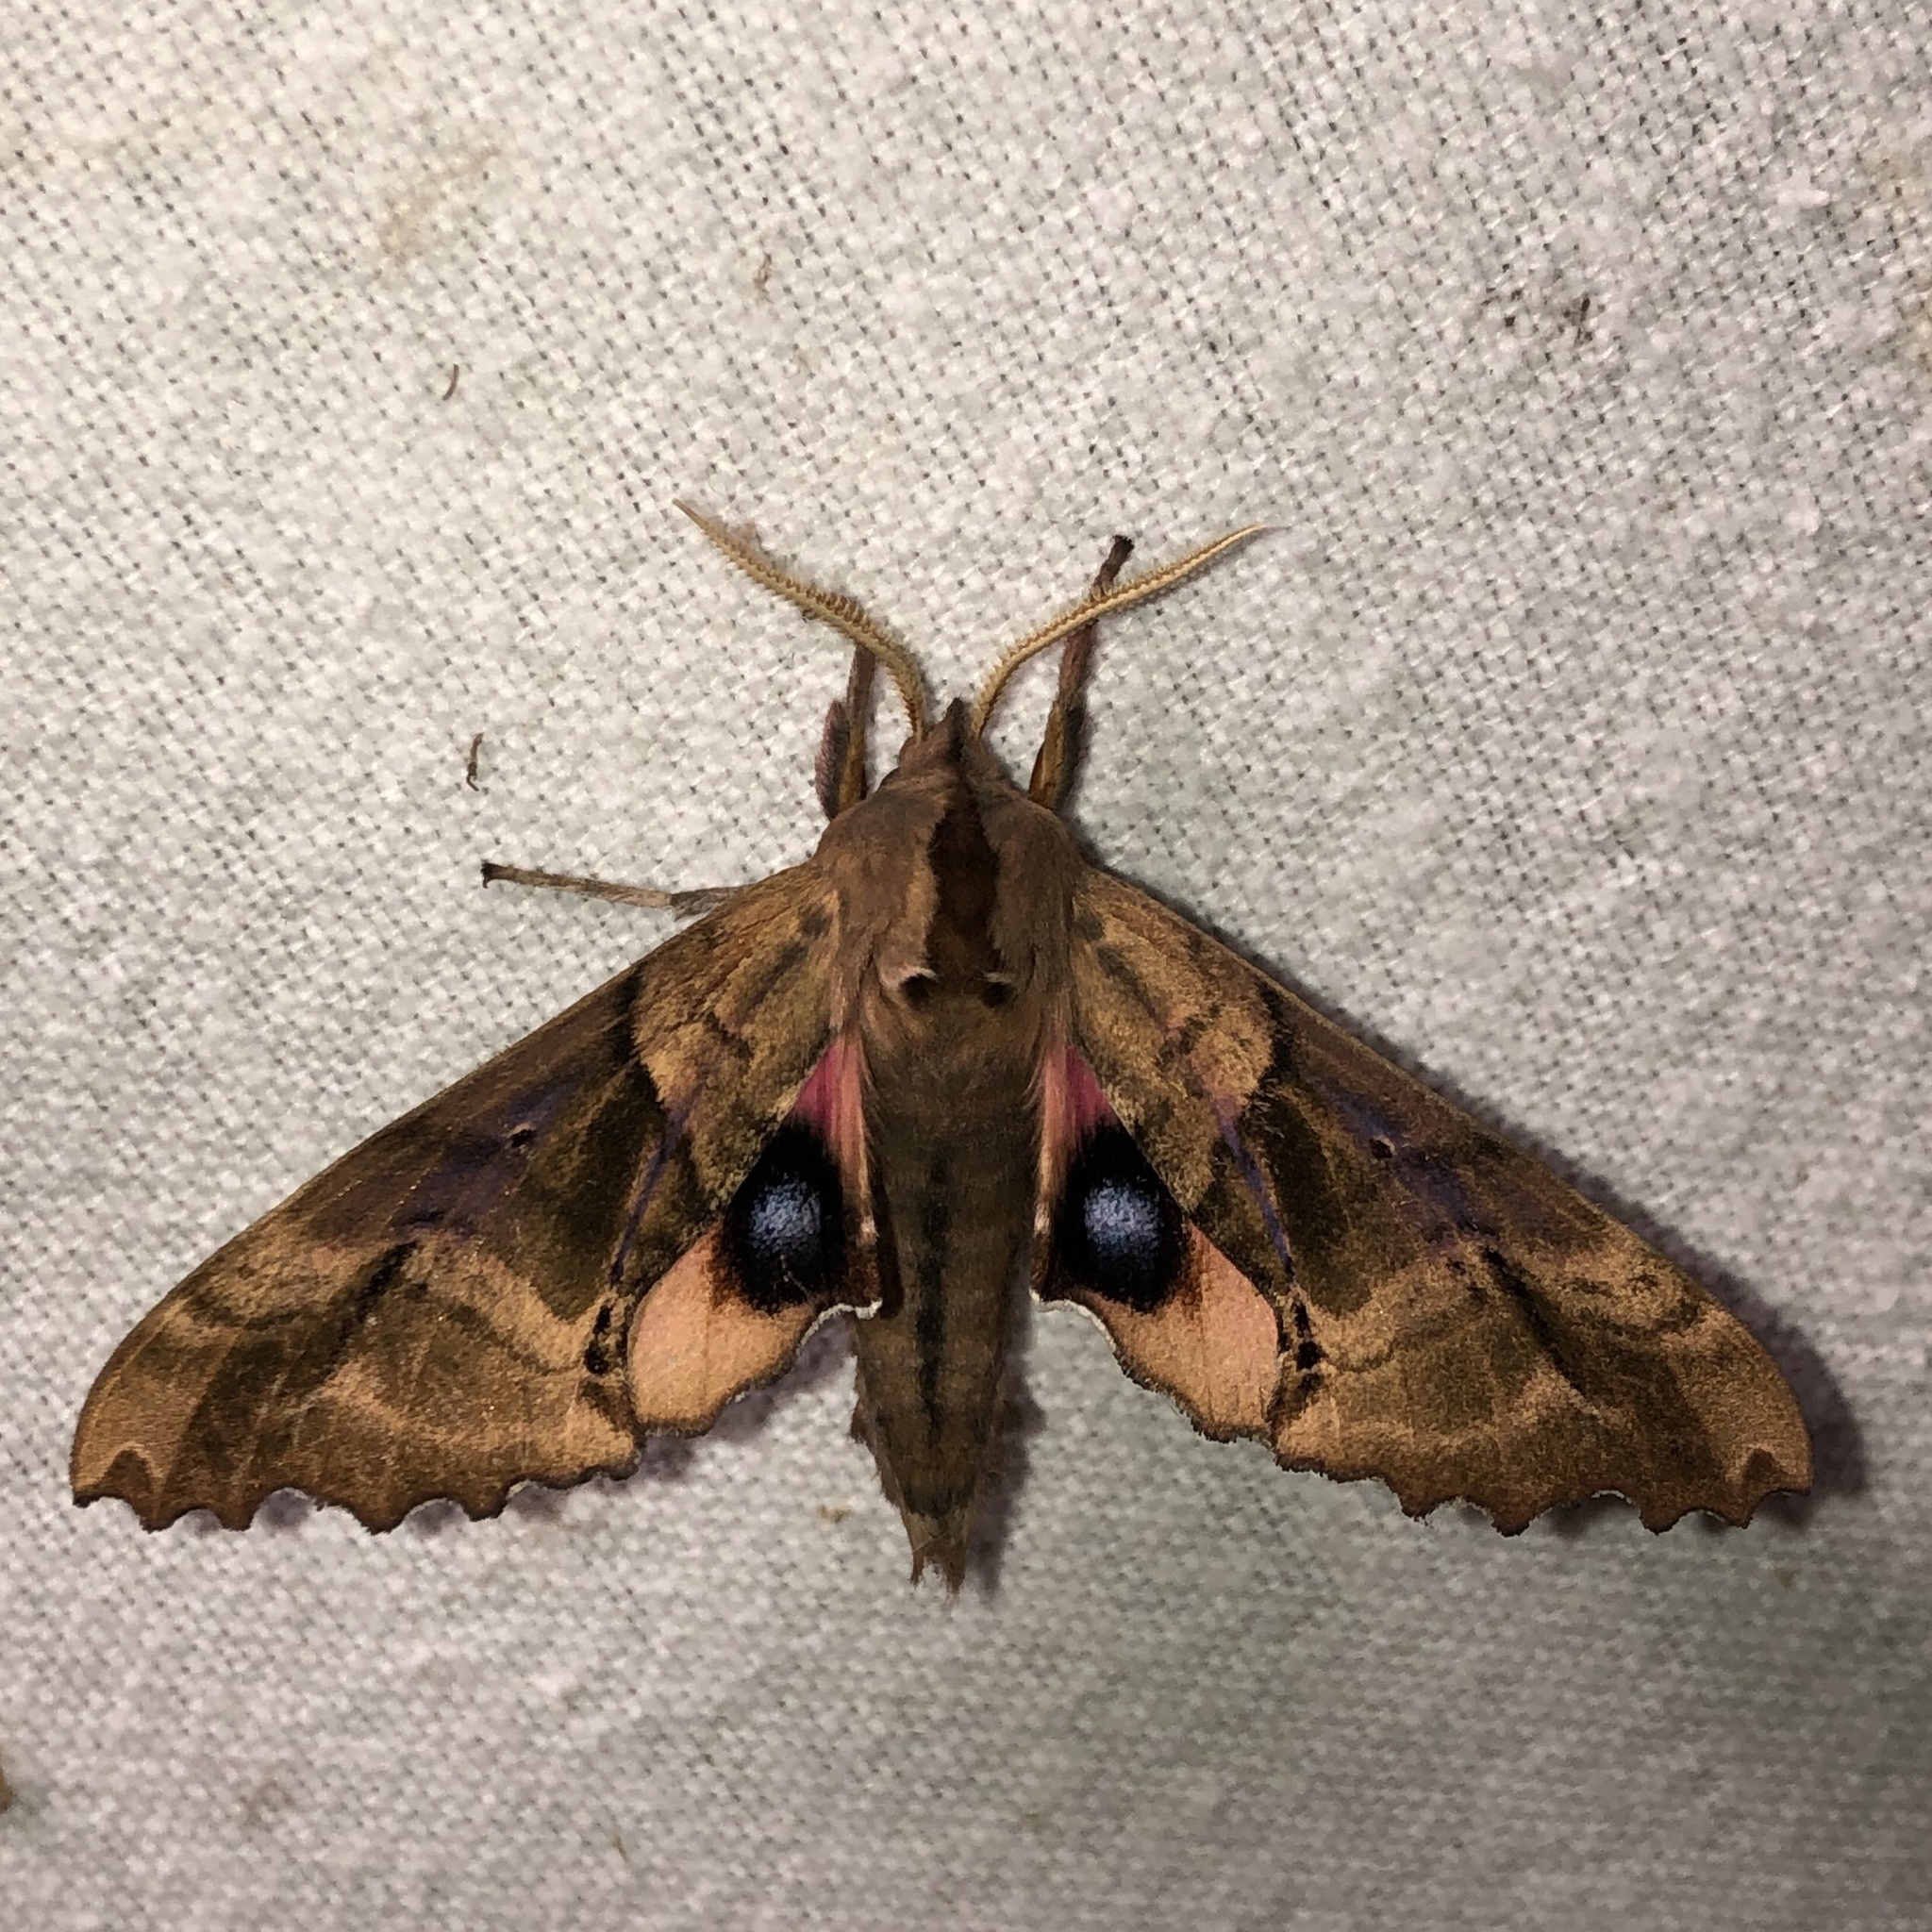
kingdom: Animalia
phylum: Arthropoda
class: Insecta
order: Lepidoptera
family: Sphingidae
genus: Paonias
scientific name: Paonias excaecata
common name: Blind-eyed sphinx
